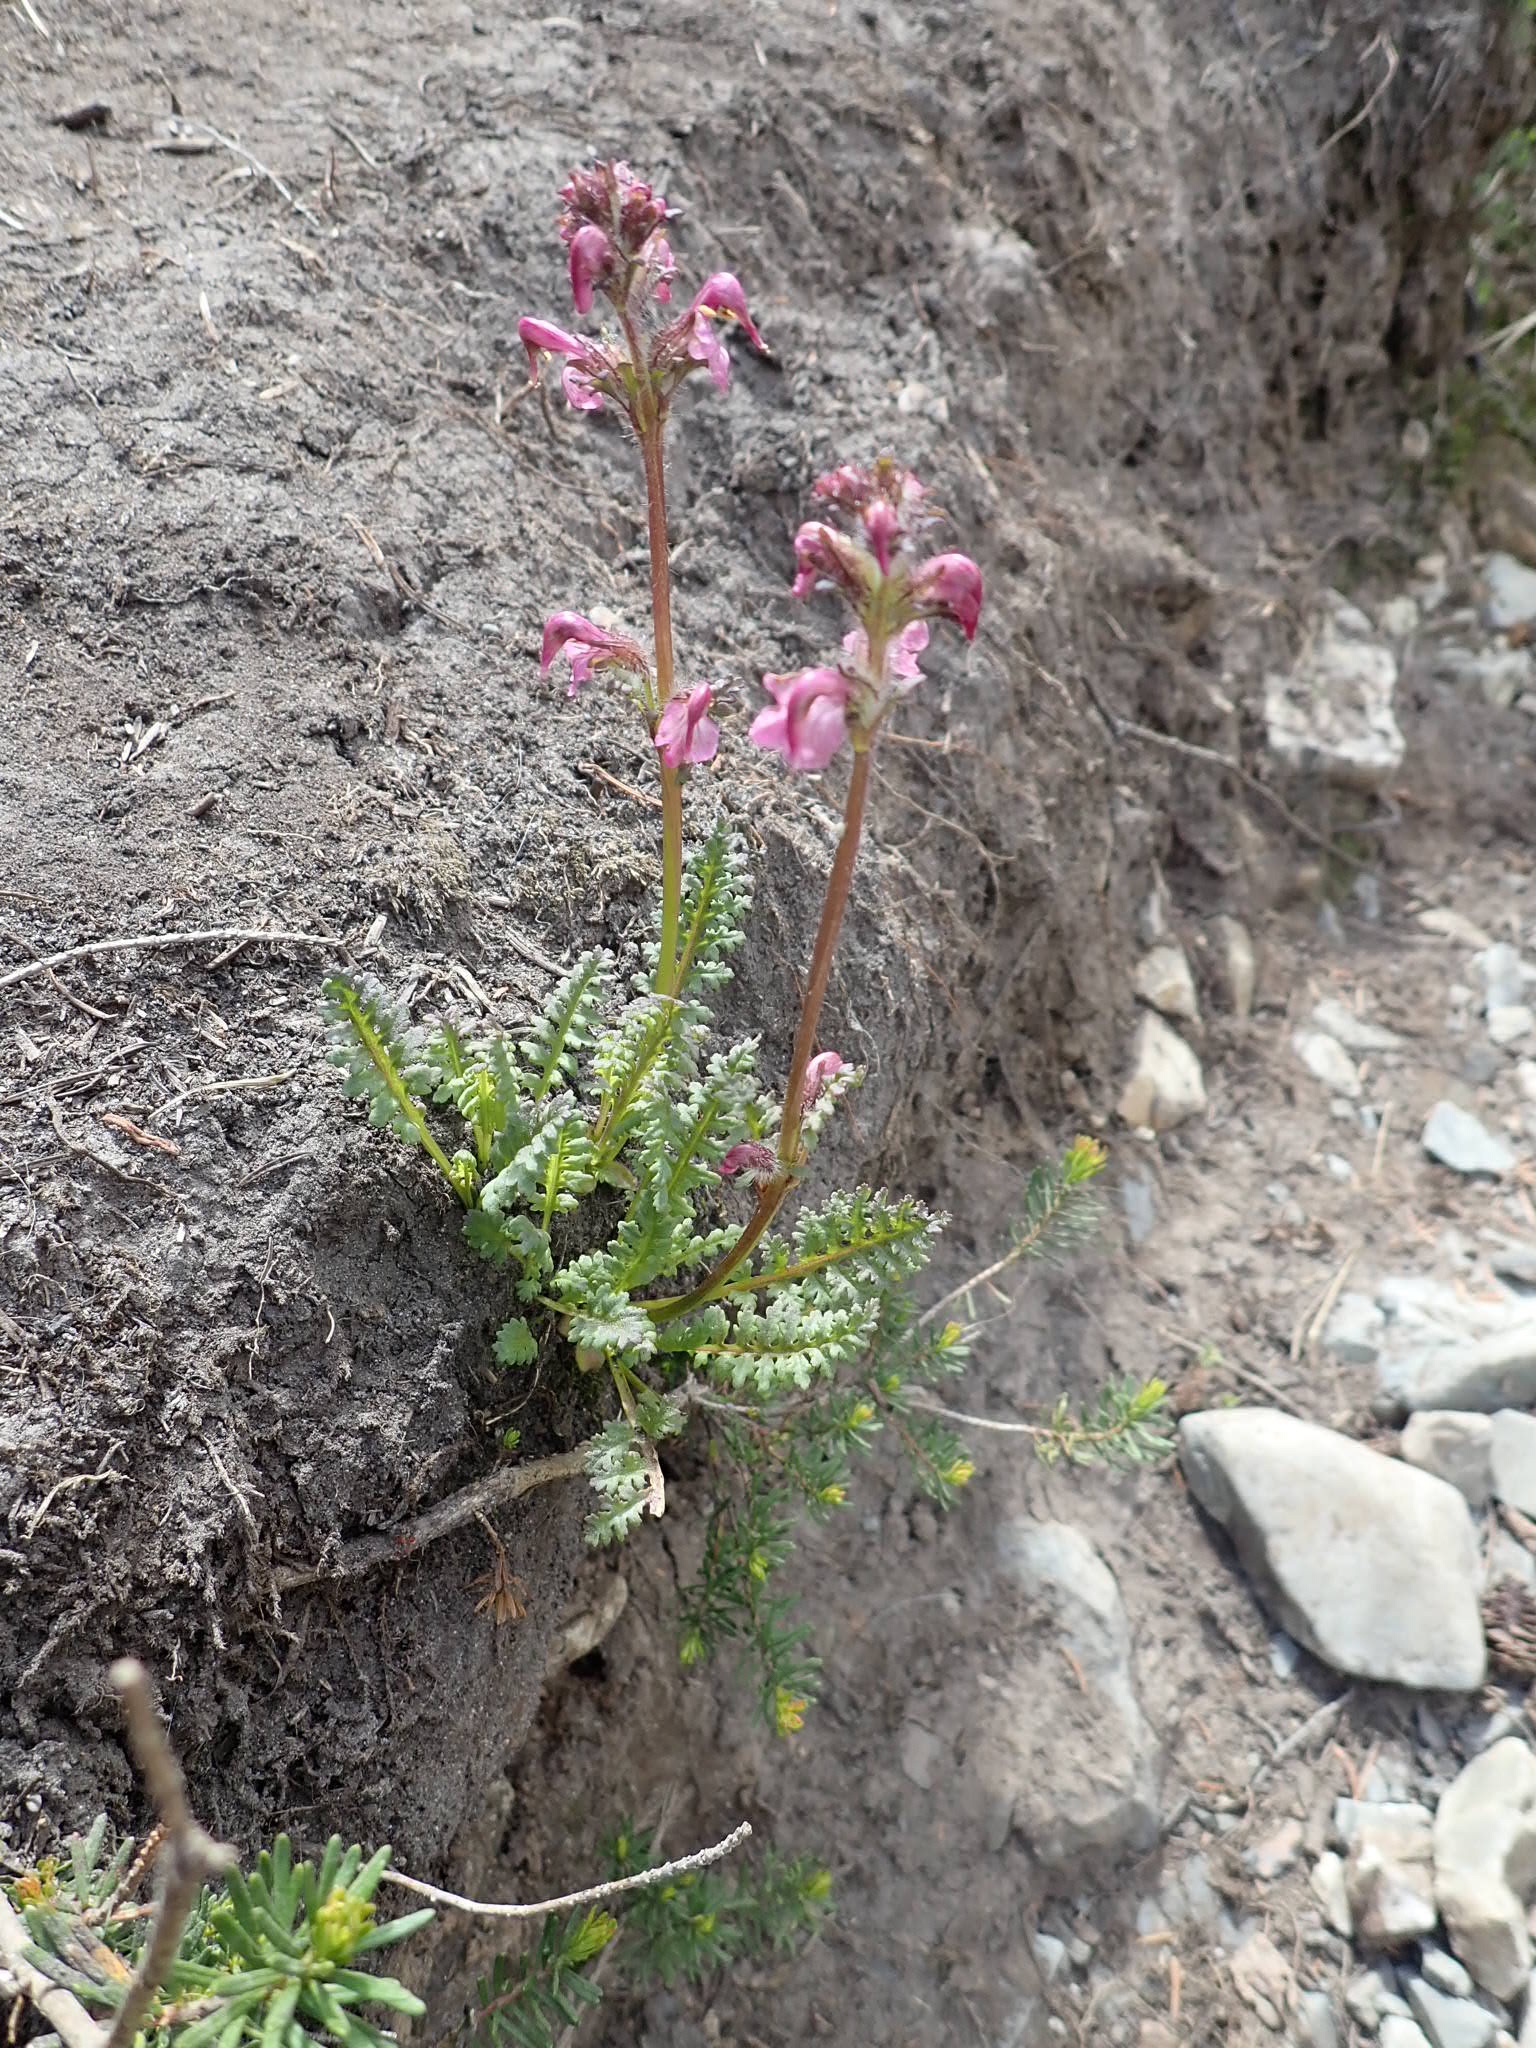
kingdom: Plantae
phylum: Tracheophyta
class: Magnoliopsida
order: Lamiales
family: Orobanchaceae
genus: Pedicularis
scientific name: Pedicularis ornithorhynchos
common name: Bird's-beak lousewort
